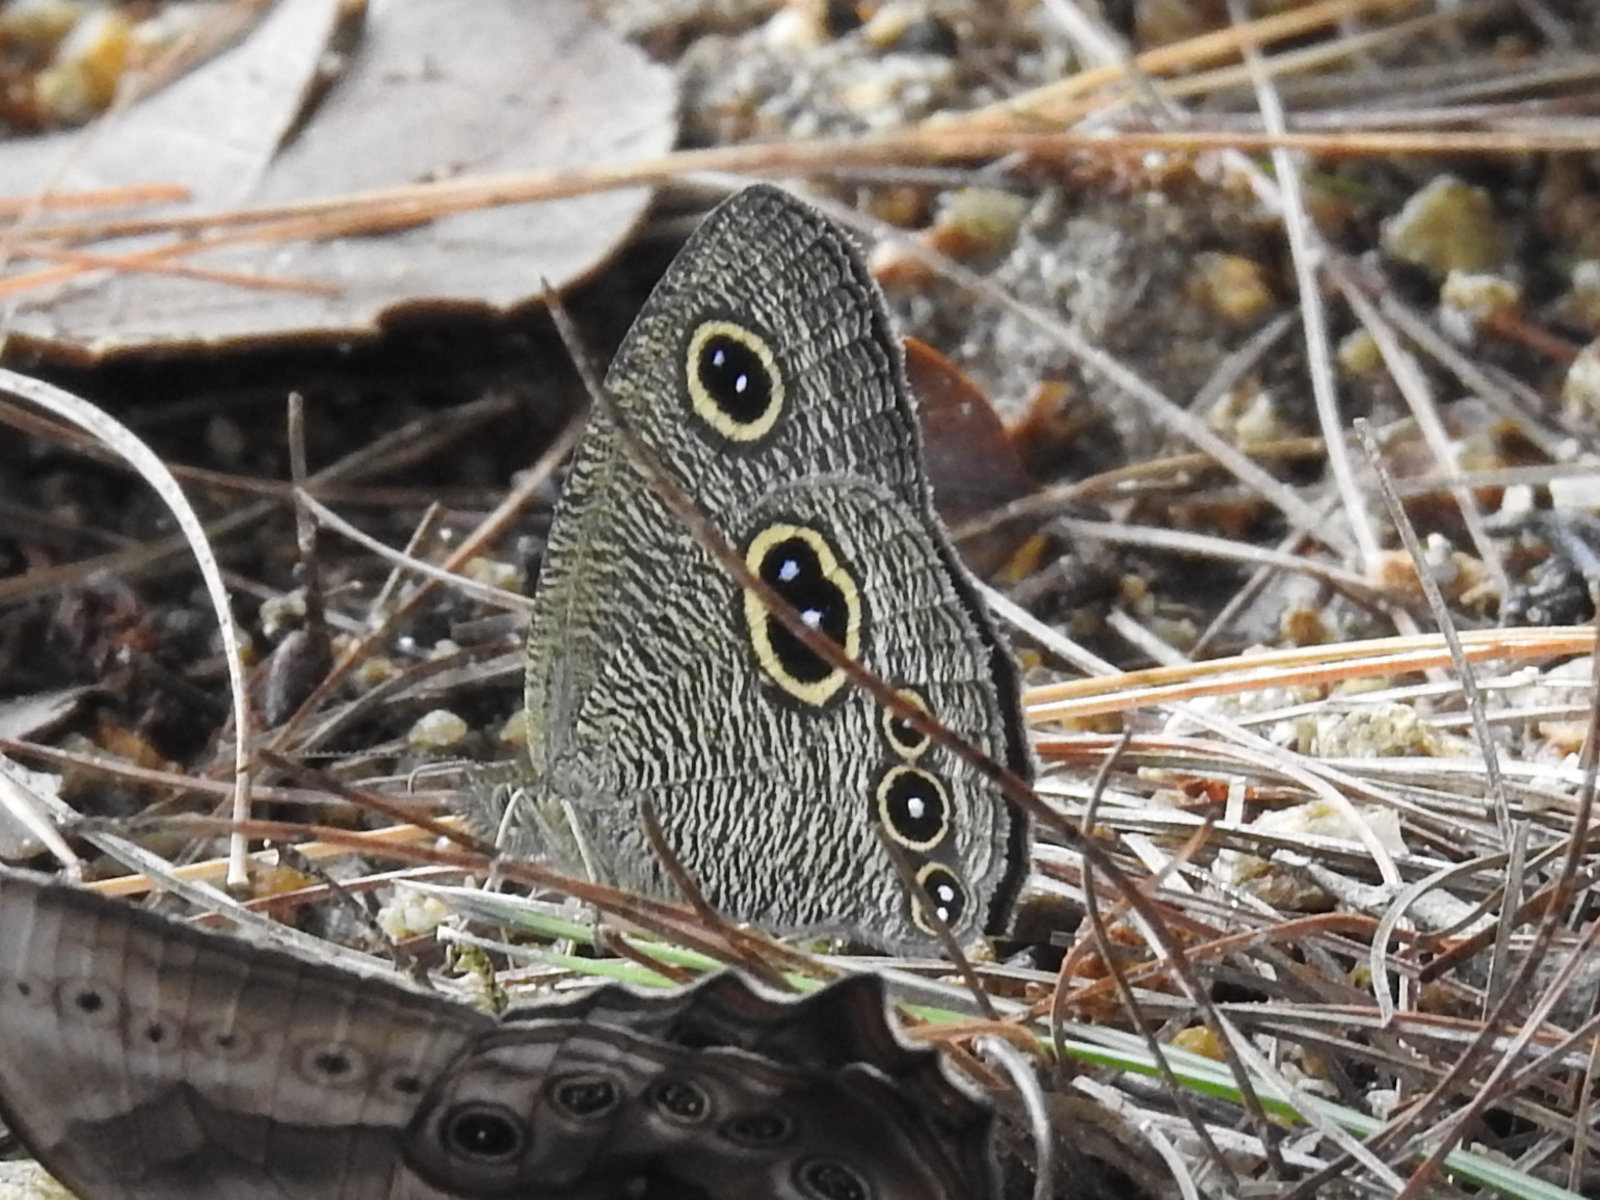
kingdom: Animalia
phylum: Arthropoda
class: Insecta
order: Lepidoptera
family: Nymphalidae
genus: Ypthima
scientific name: Ypthima nikaea
